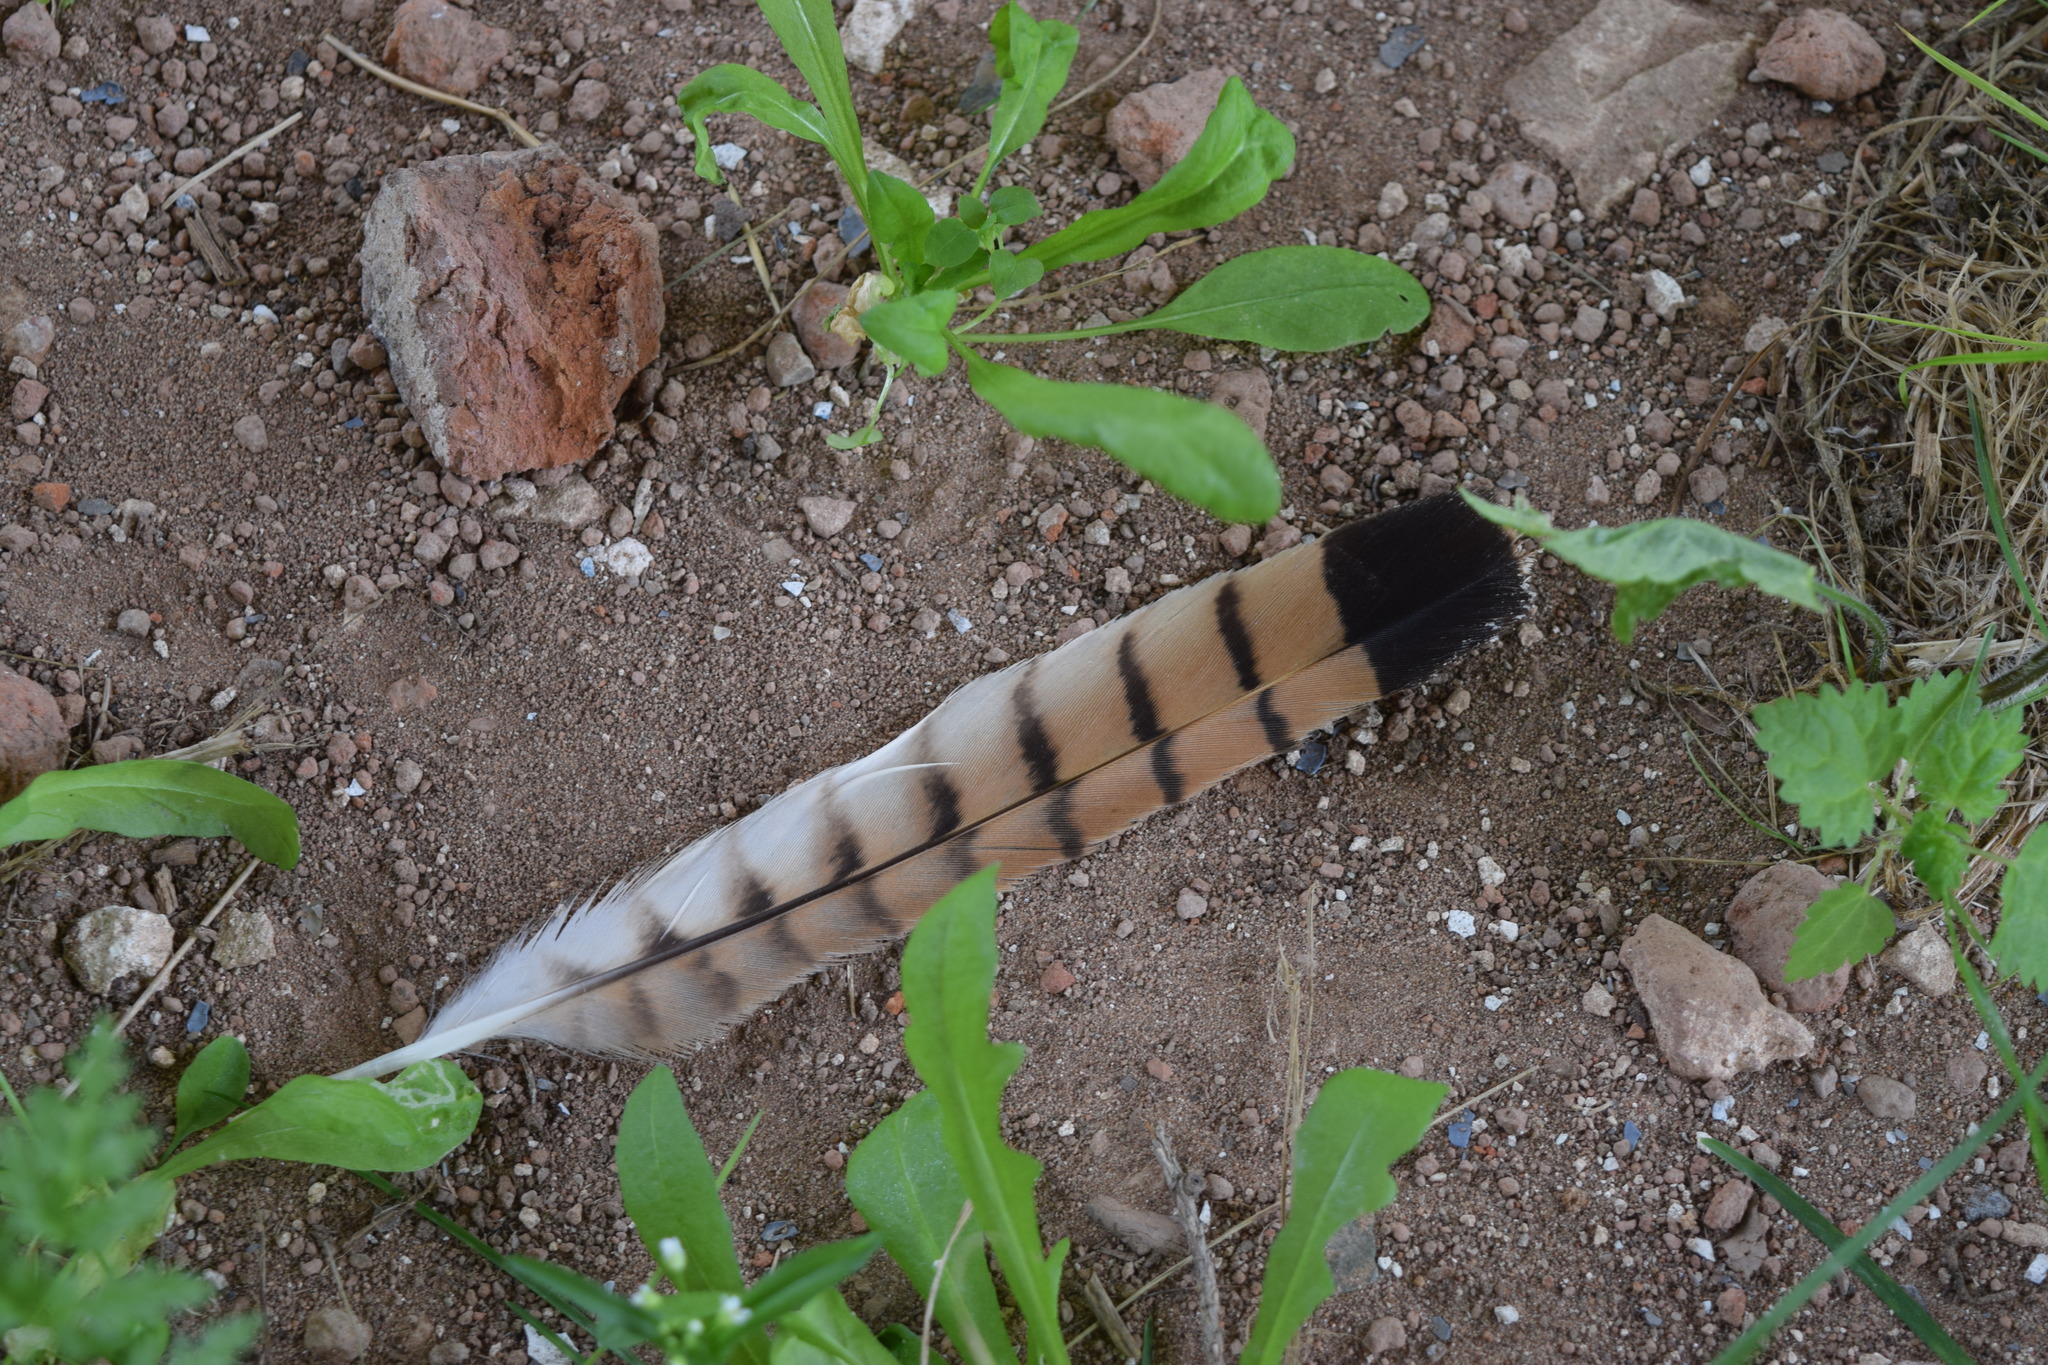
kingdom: Animalia
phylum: Chordata
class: Aves
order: Falconiformes
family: Falconidae
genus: Falco
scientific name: Falco tinnunculus
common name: Common kestrel
